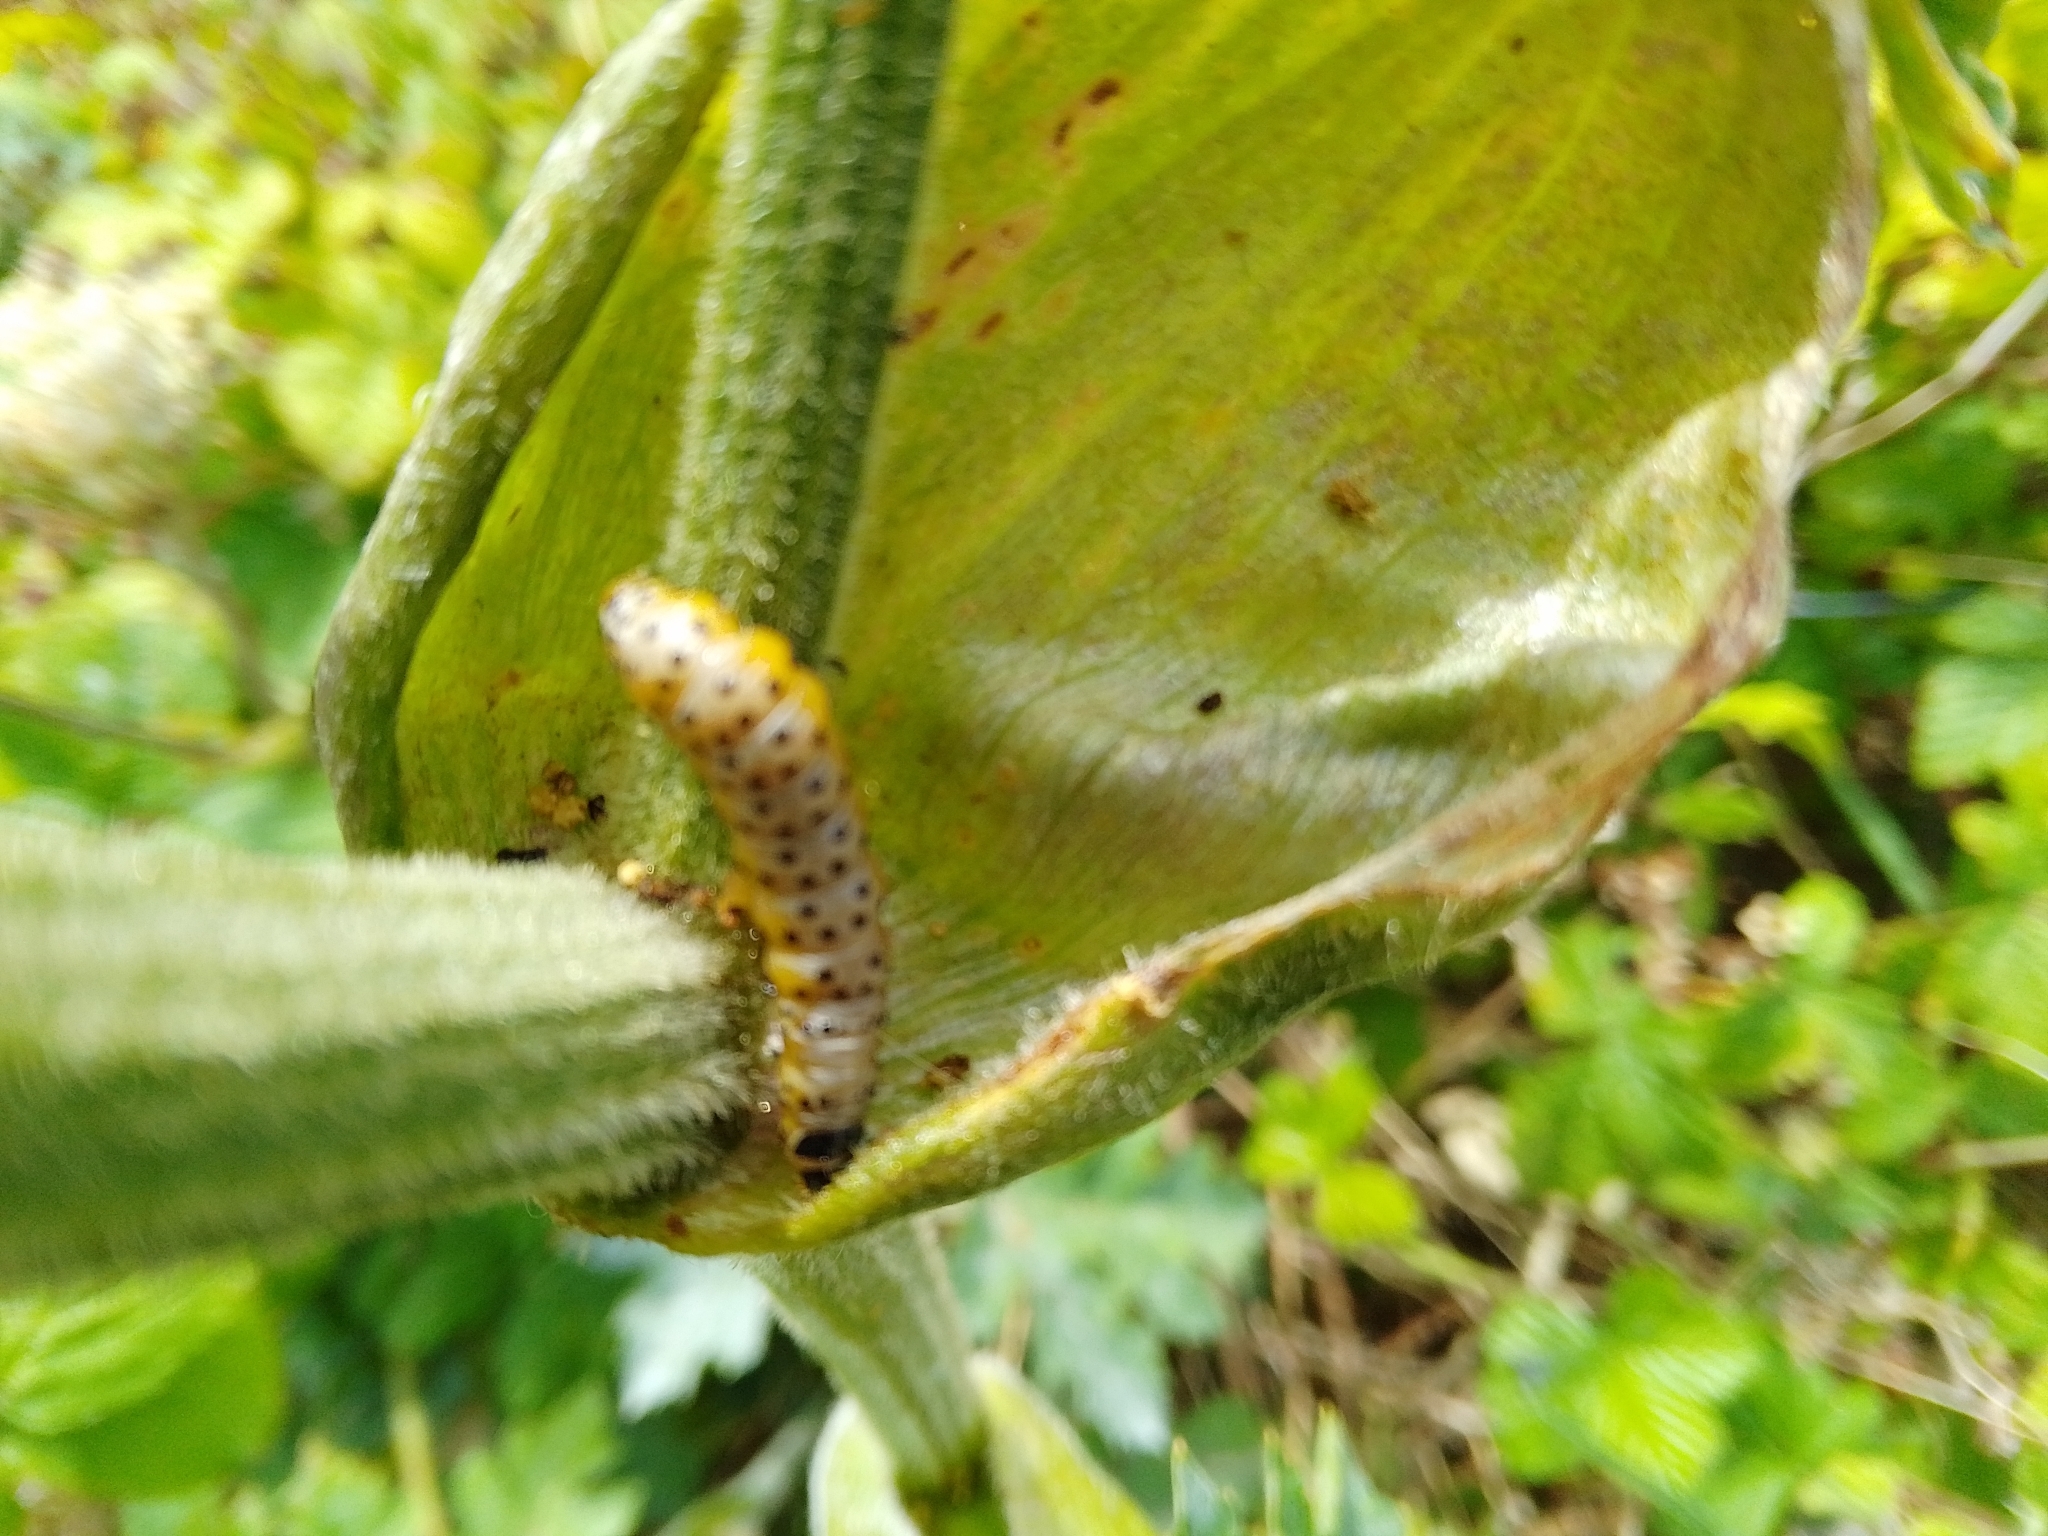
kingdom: Animalia
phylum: Arthropoda
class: Insecta
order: Lepidoptera
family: Depressariidae
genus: Depressaria
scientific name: Depressaria radiella
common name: Parsnip moth
